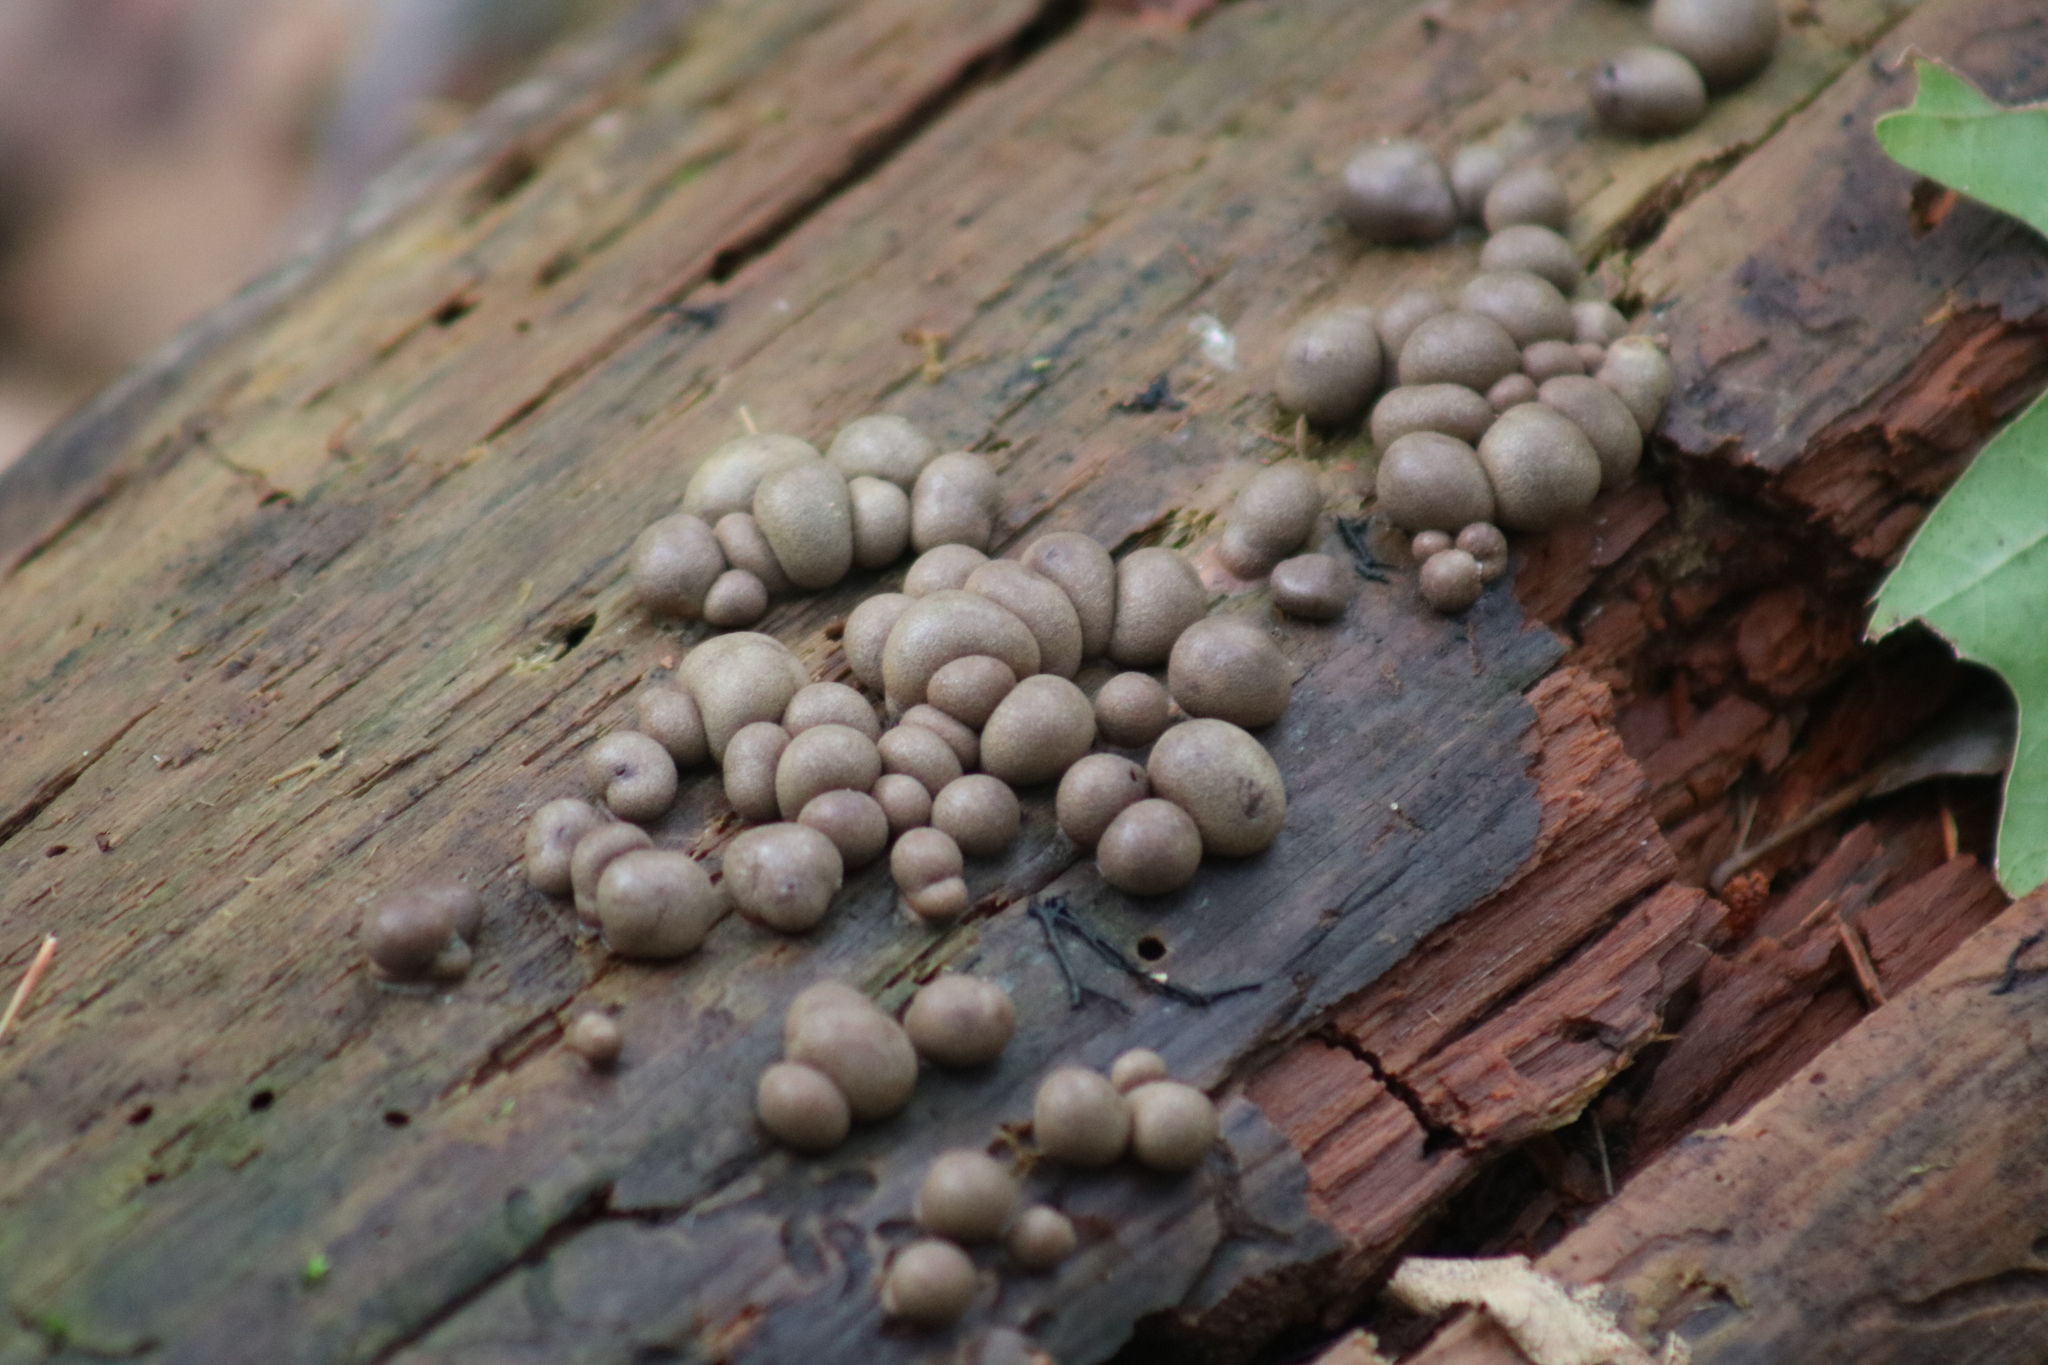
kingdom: Protozoa
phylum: Mycetozoa
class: Myxomycetes
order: Cribrariales
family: Tubiferaceae
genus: Lycogala
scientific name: Lycogala epidendrum
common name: Wolf's milk
